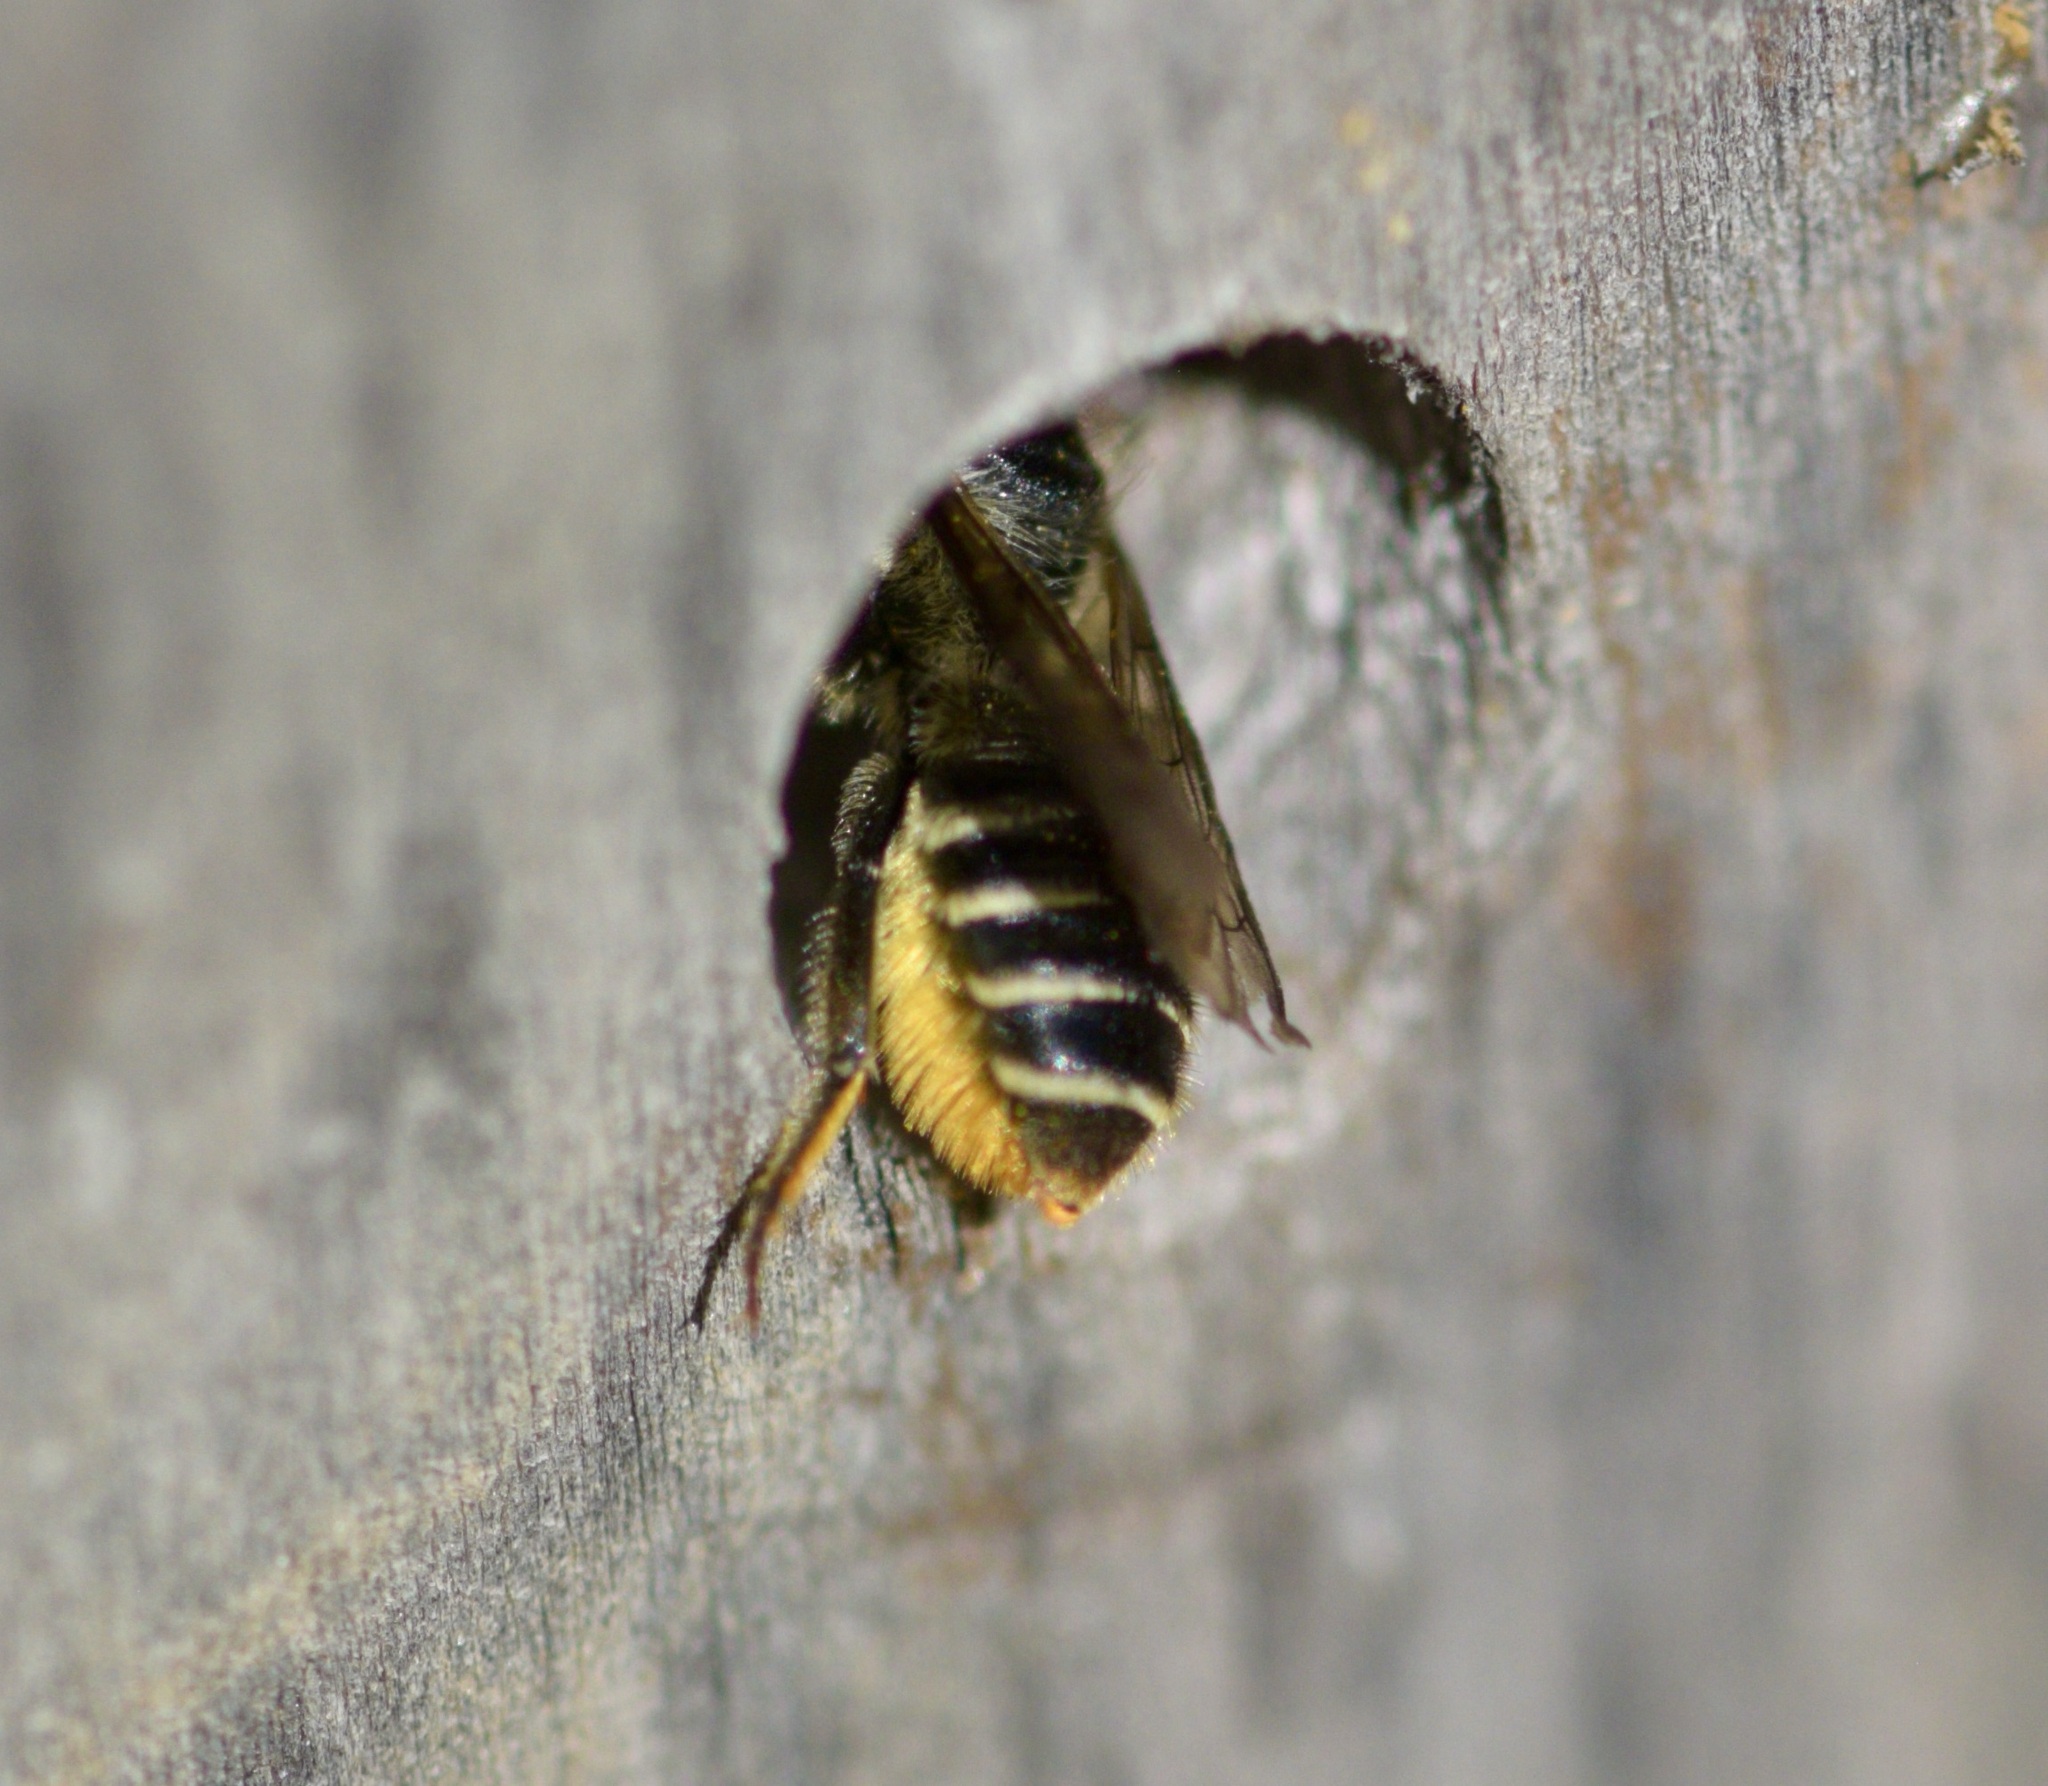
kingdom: Animalia
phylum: Arthropoda
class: Insecta
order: Hymenoptera
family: Megachilidae
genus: Megachile
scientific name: Megachile relativa
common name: Golden-tailed leafcutter
